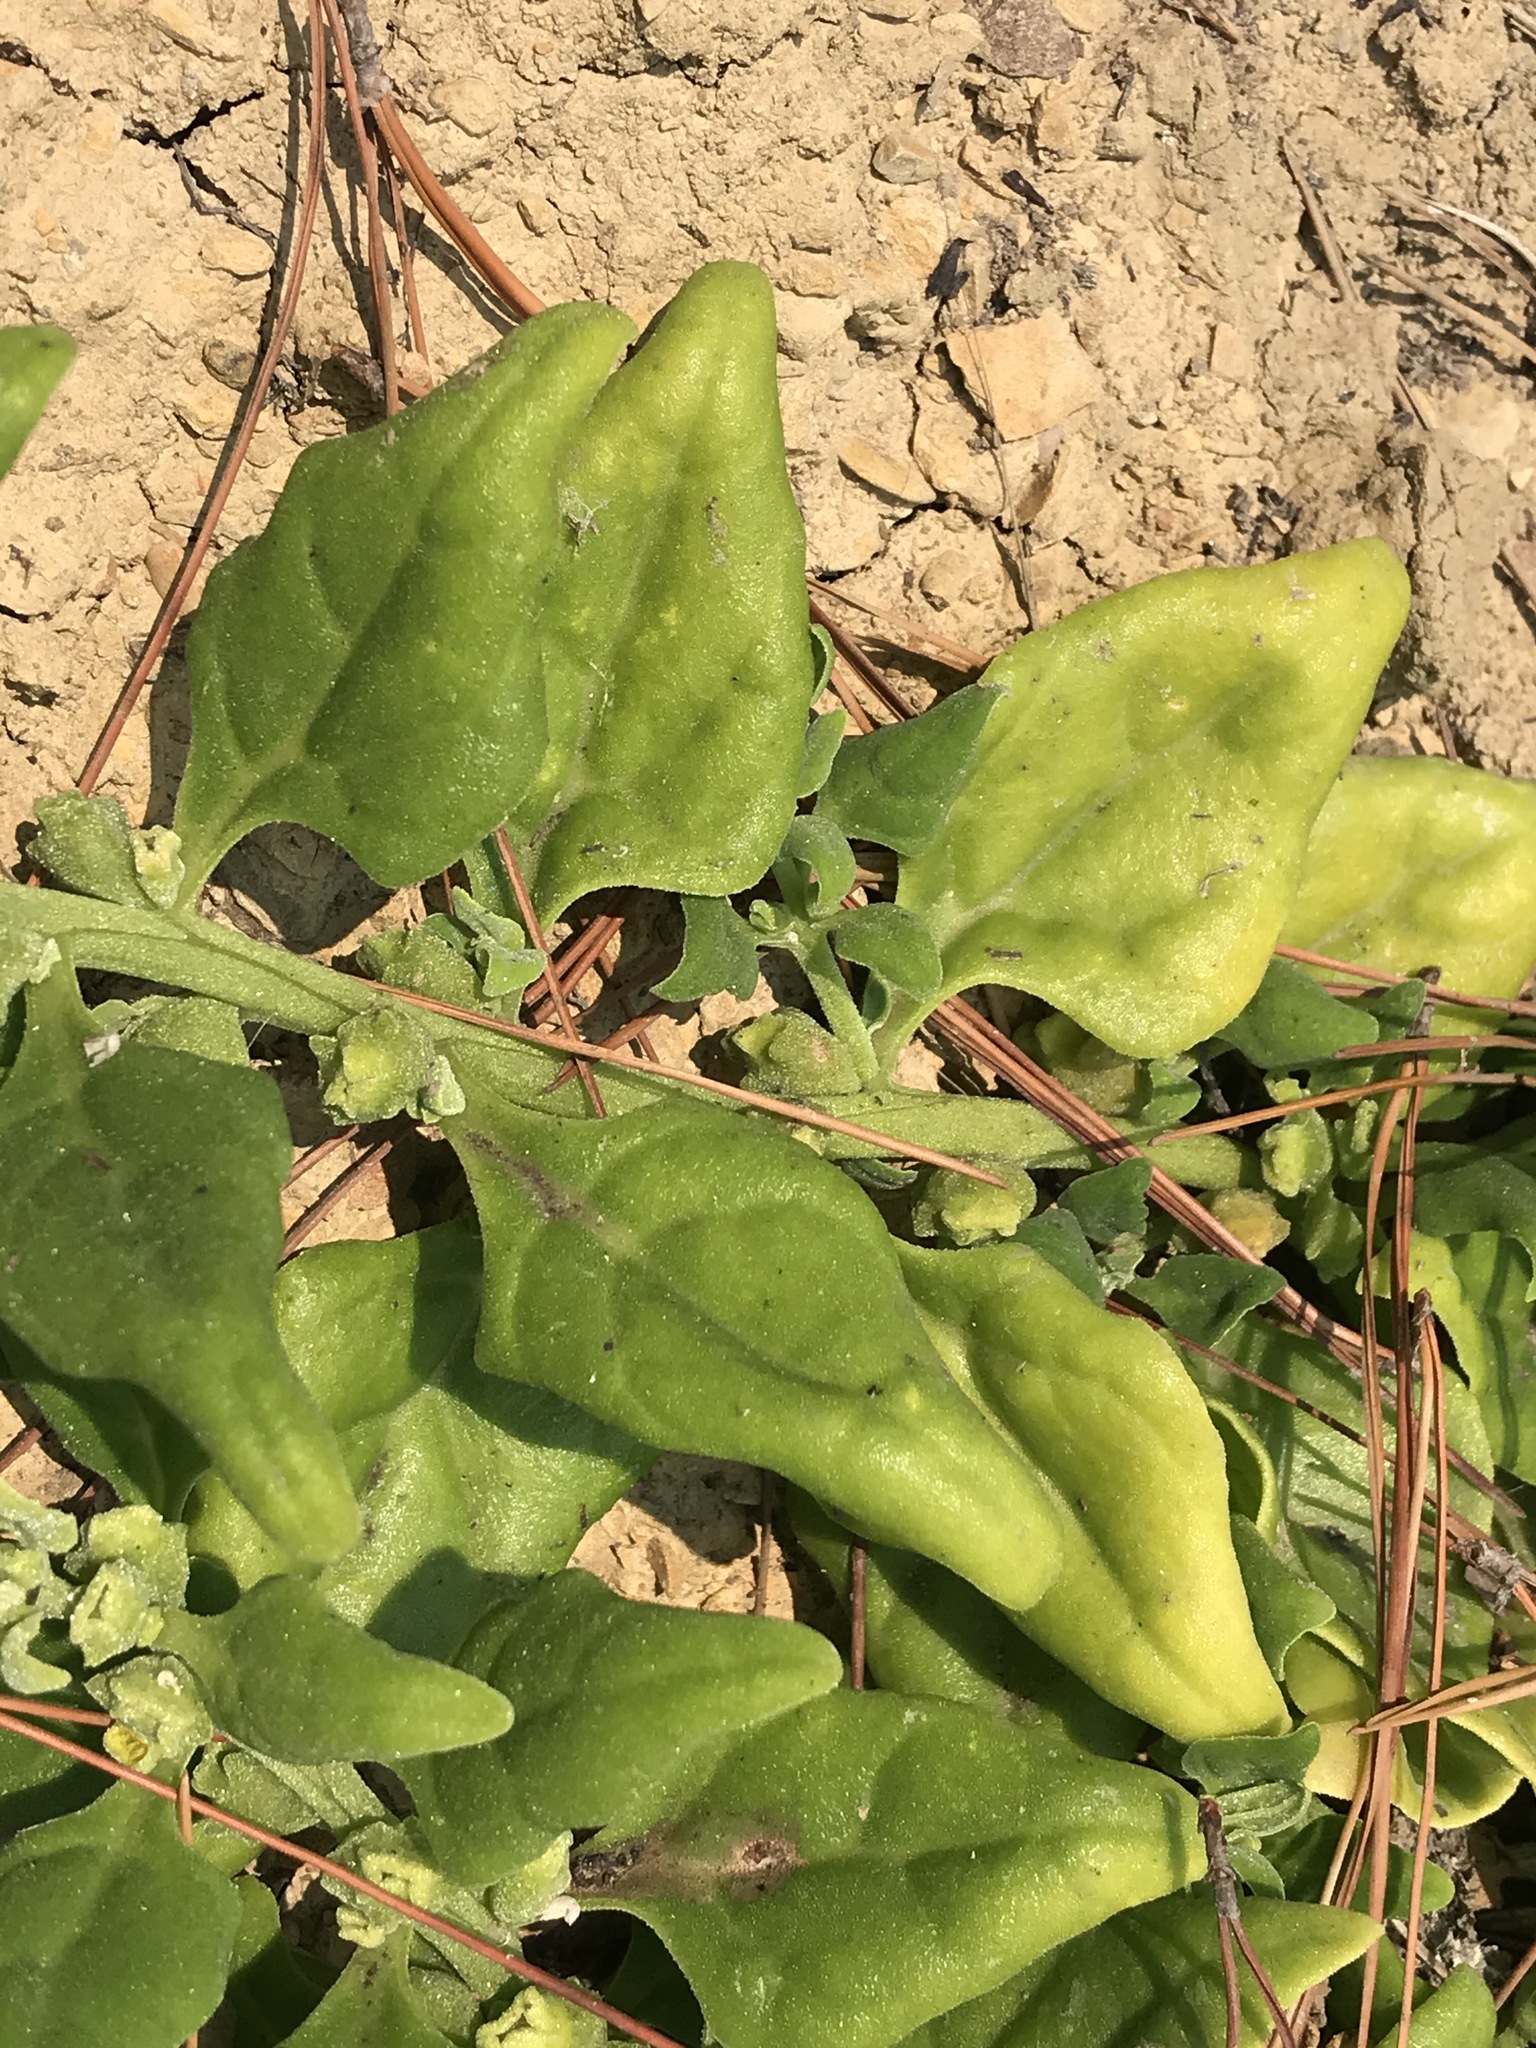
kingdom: Plantae
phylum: Tracheophyta
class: Magnoliopsida
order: Caryophyllales
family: Aizoaceae
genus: Tetragonia
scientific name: Tetragonia tetragonoides
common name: New zealand-spinach
